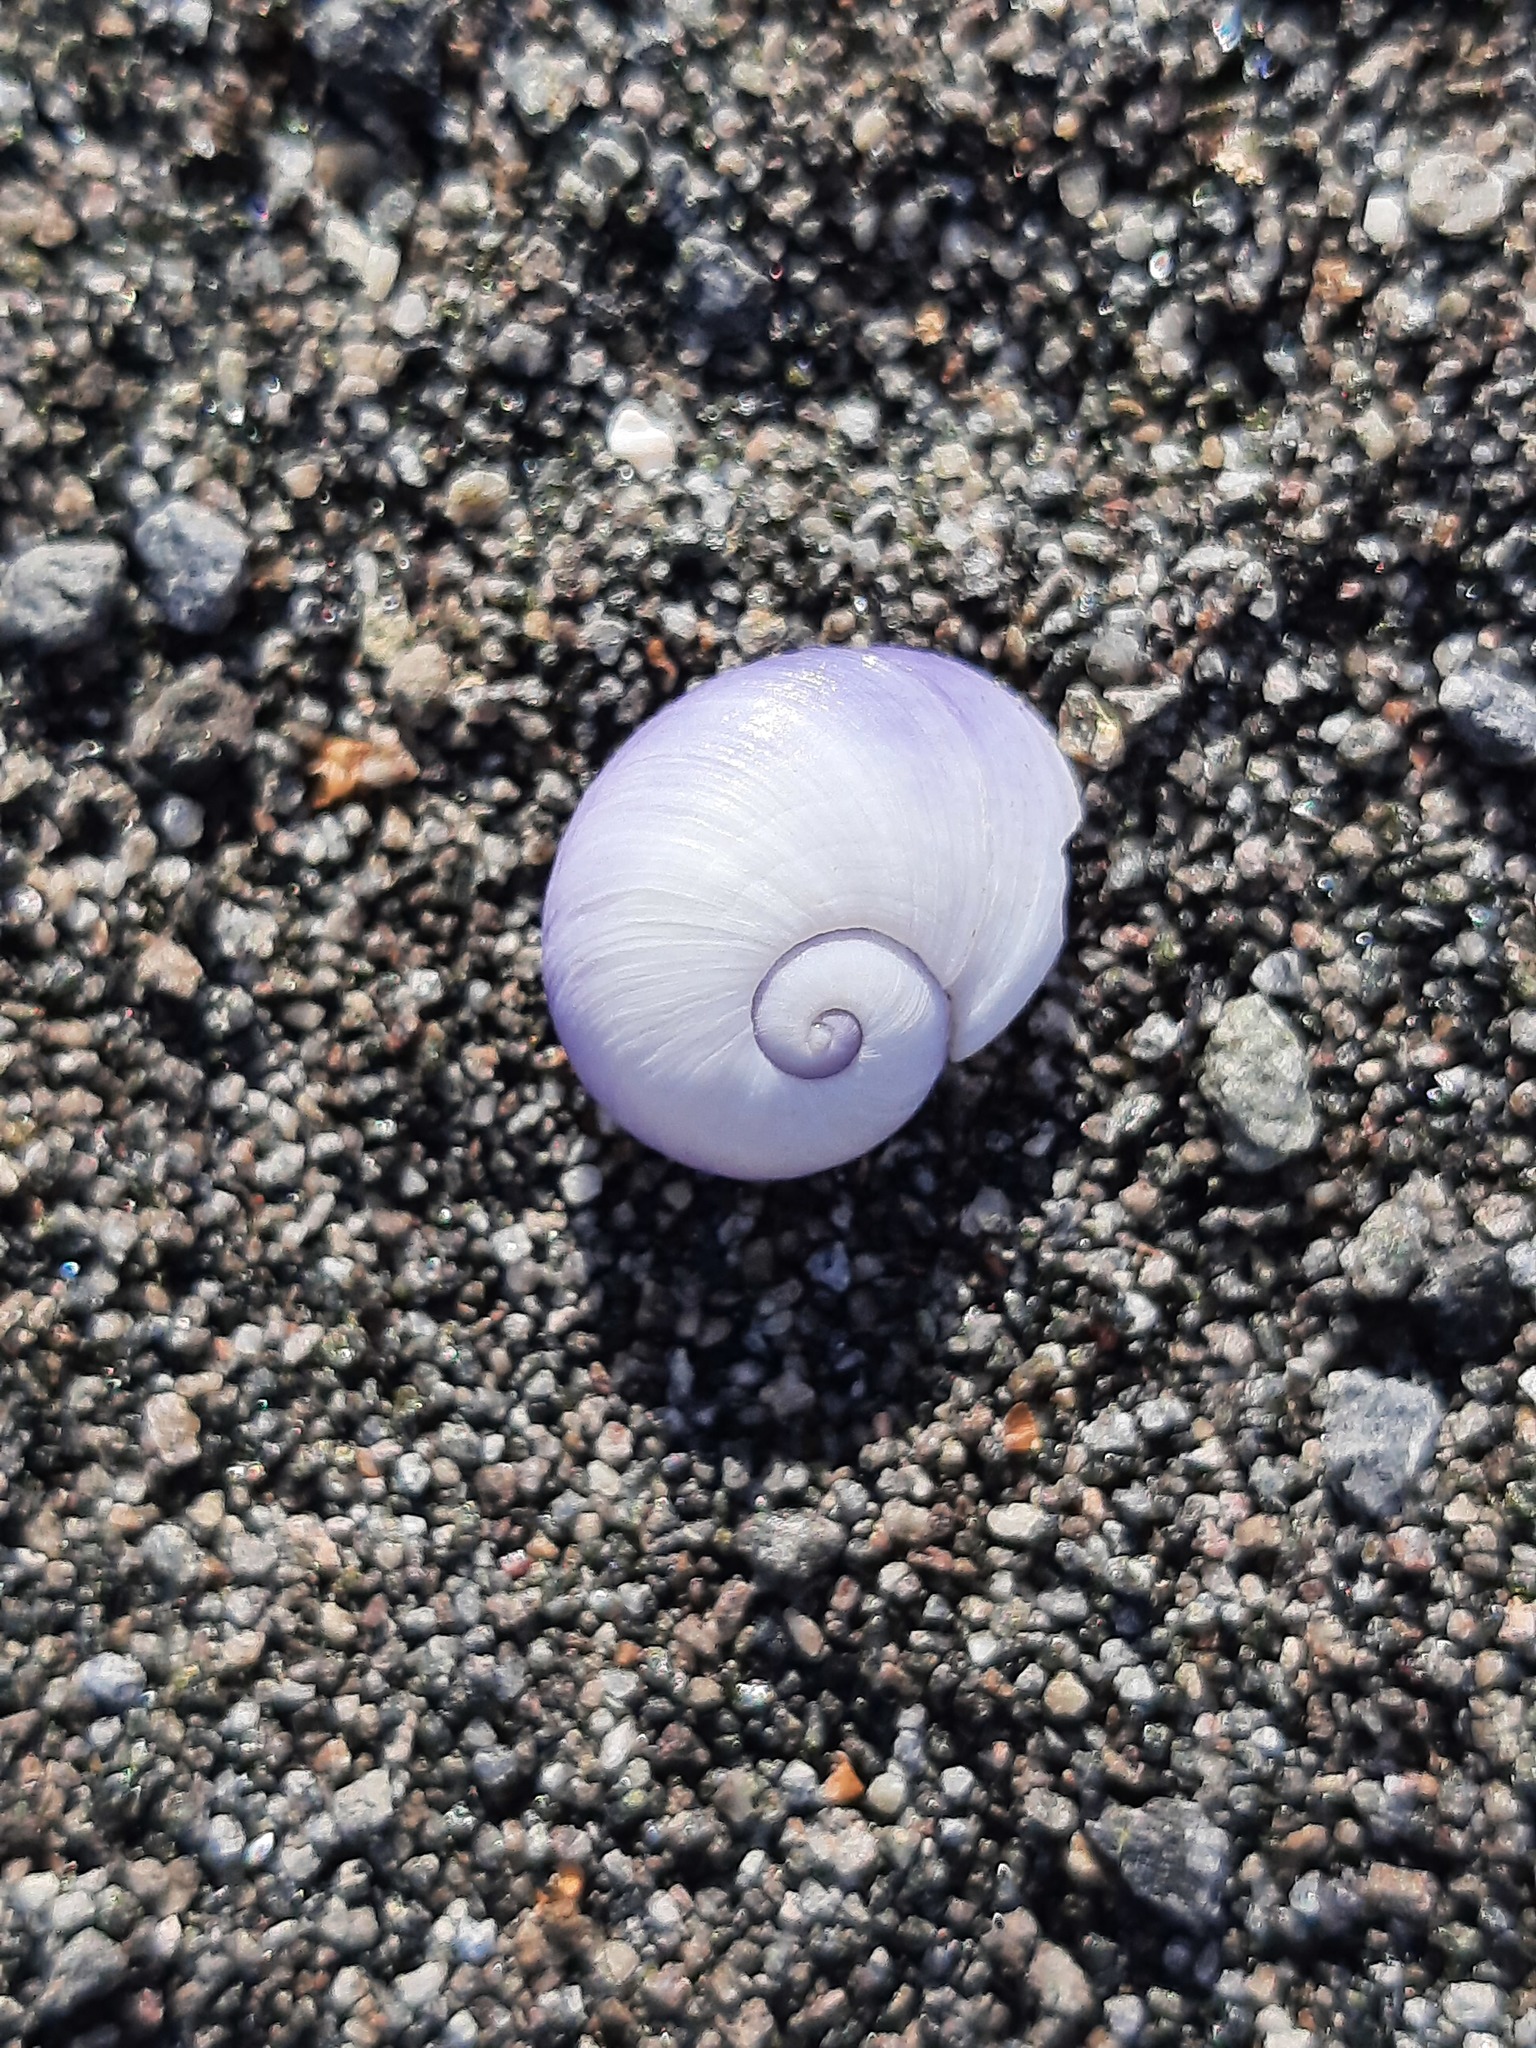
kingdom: Animalia
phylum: Mollusca
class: Gastropoda
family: Epitoniidae
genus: Janthina
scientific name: Janthina janthina
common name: Common janthina
